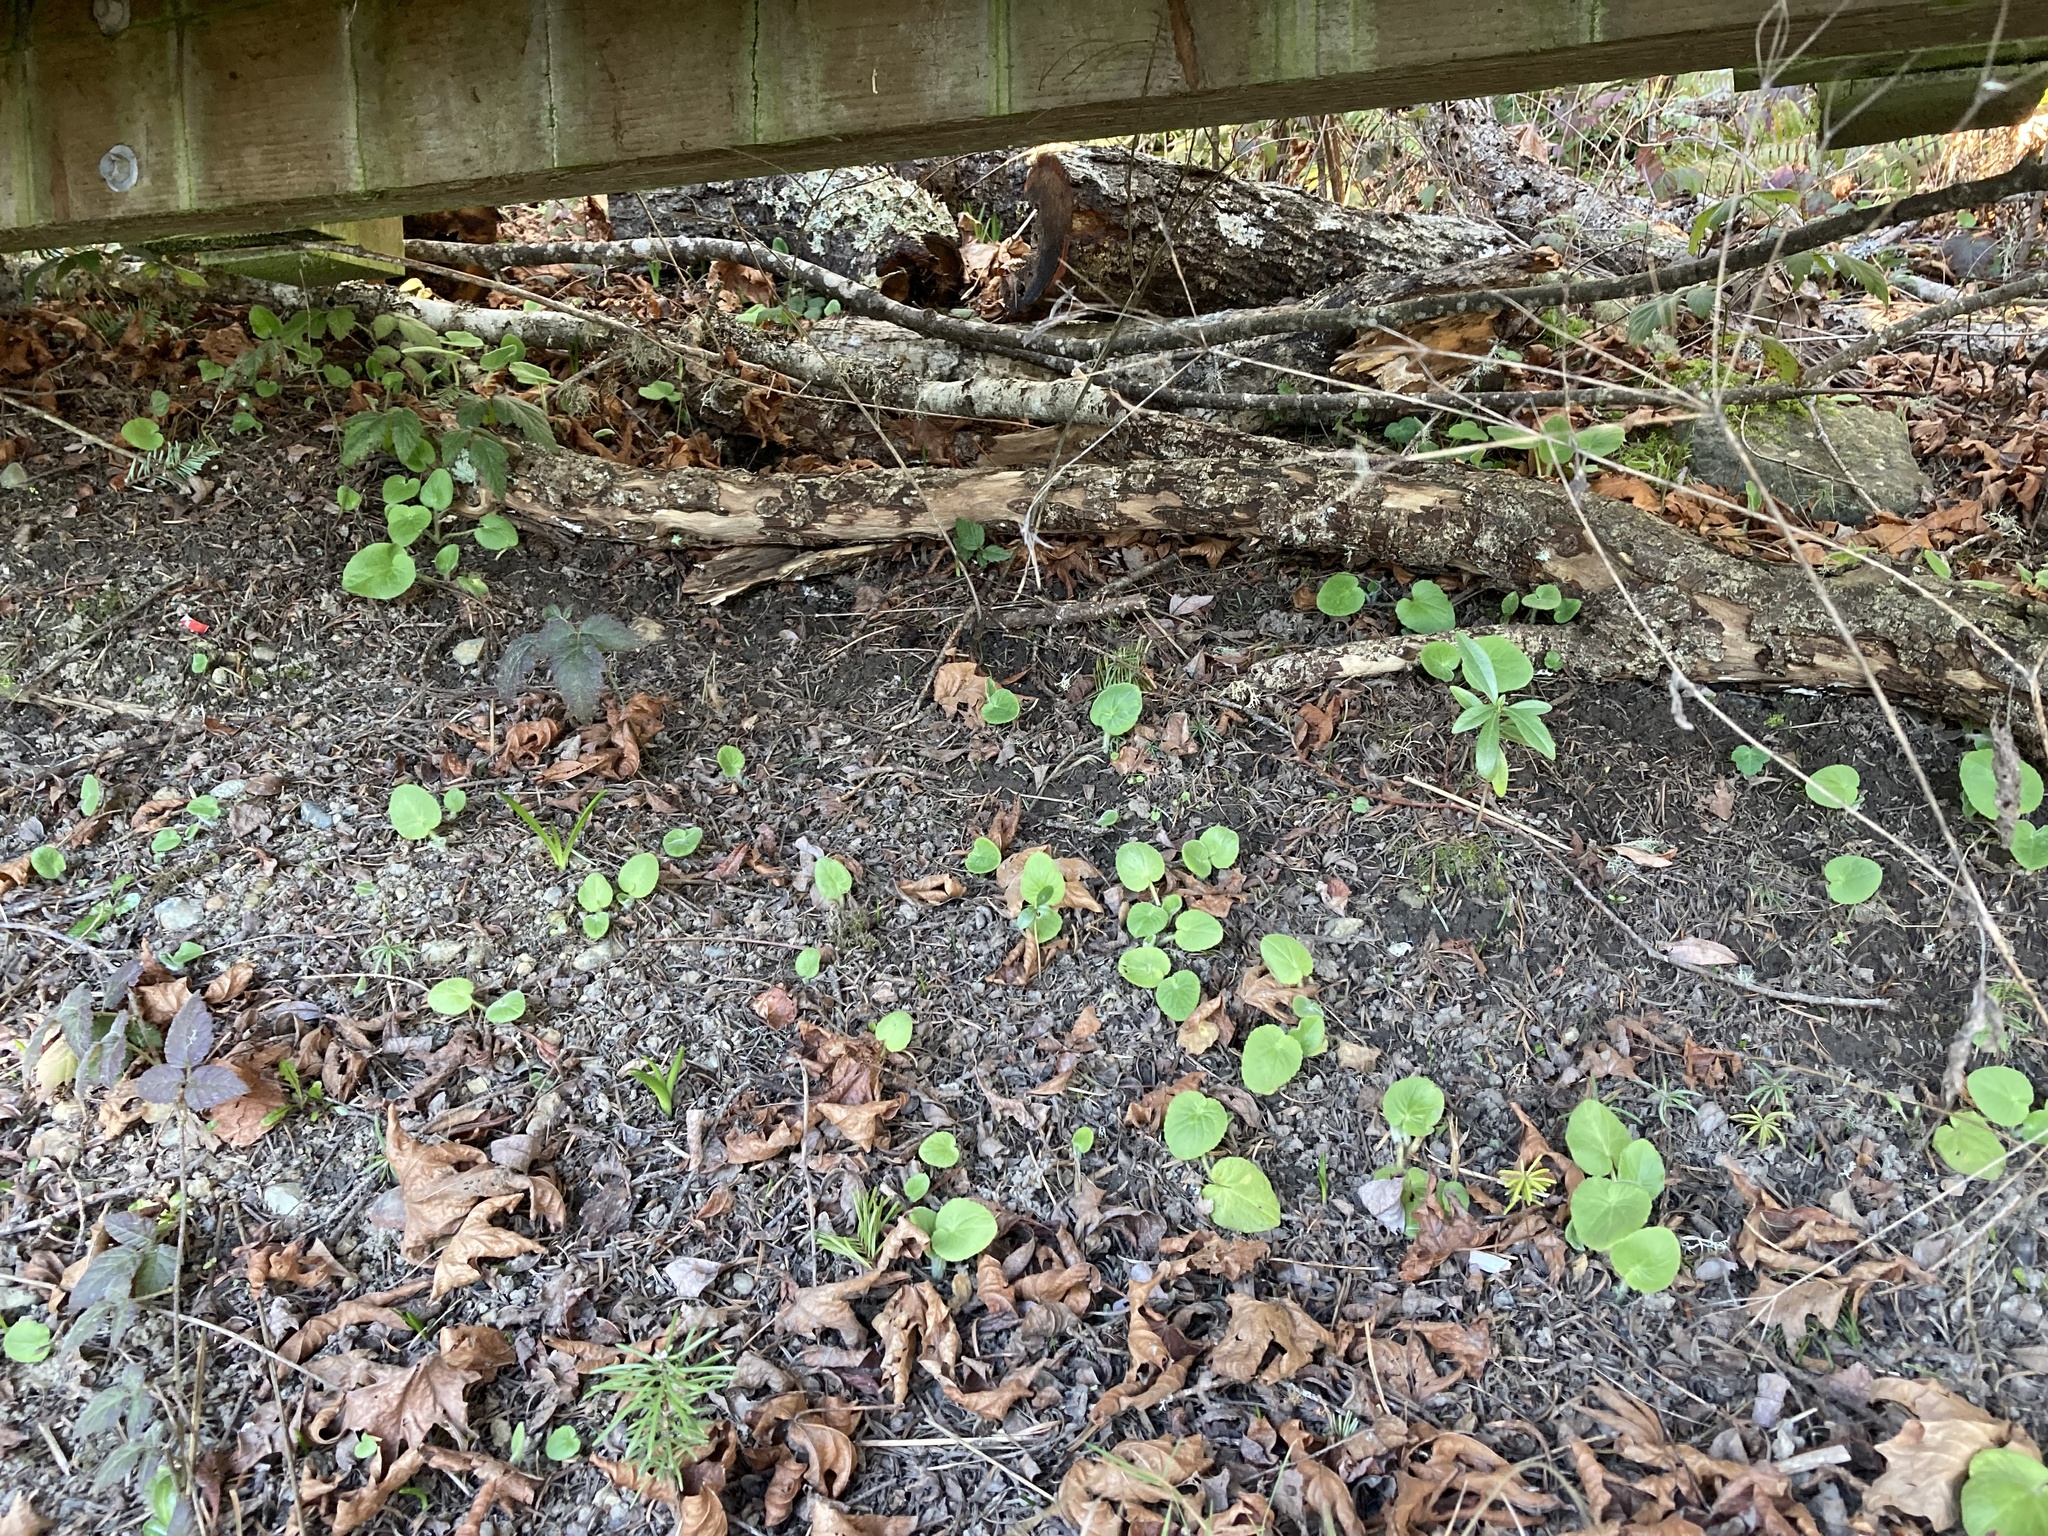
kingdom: Plantae
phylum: Tracheophyta
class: Magnoliopsida
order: Asterales
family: Asteraceae
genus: Doronicum
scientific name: Doronicum pardalianches
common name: Leopard's-bane
